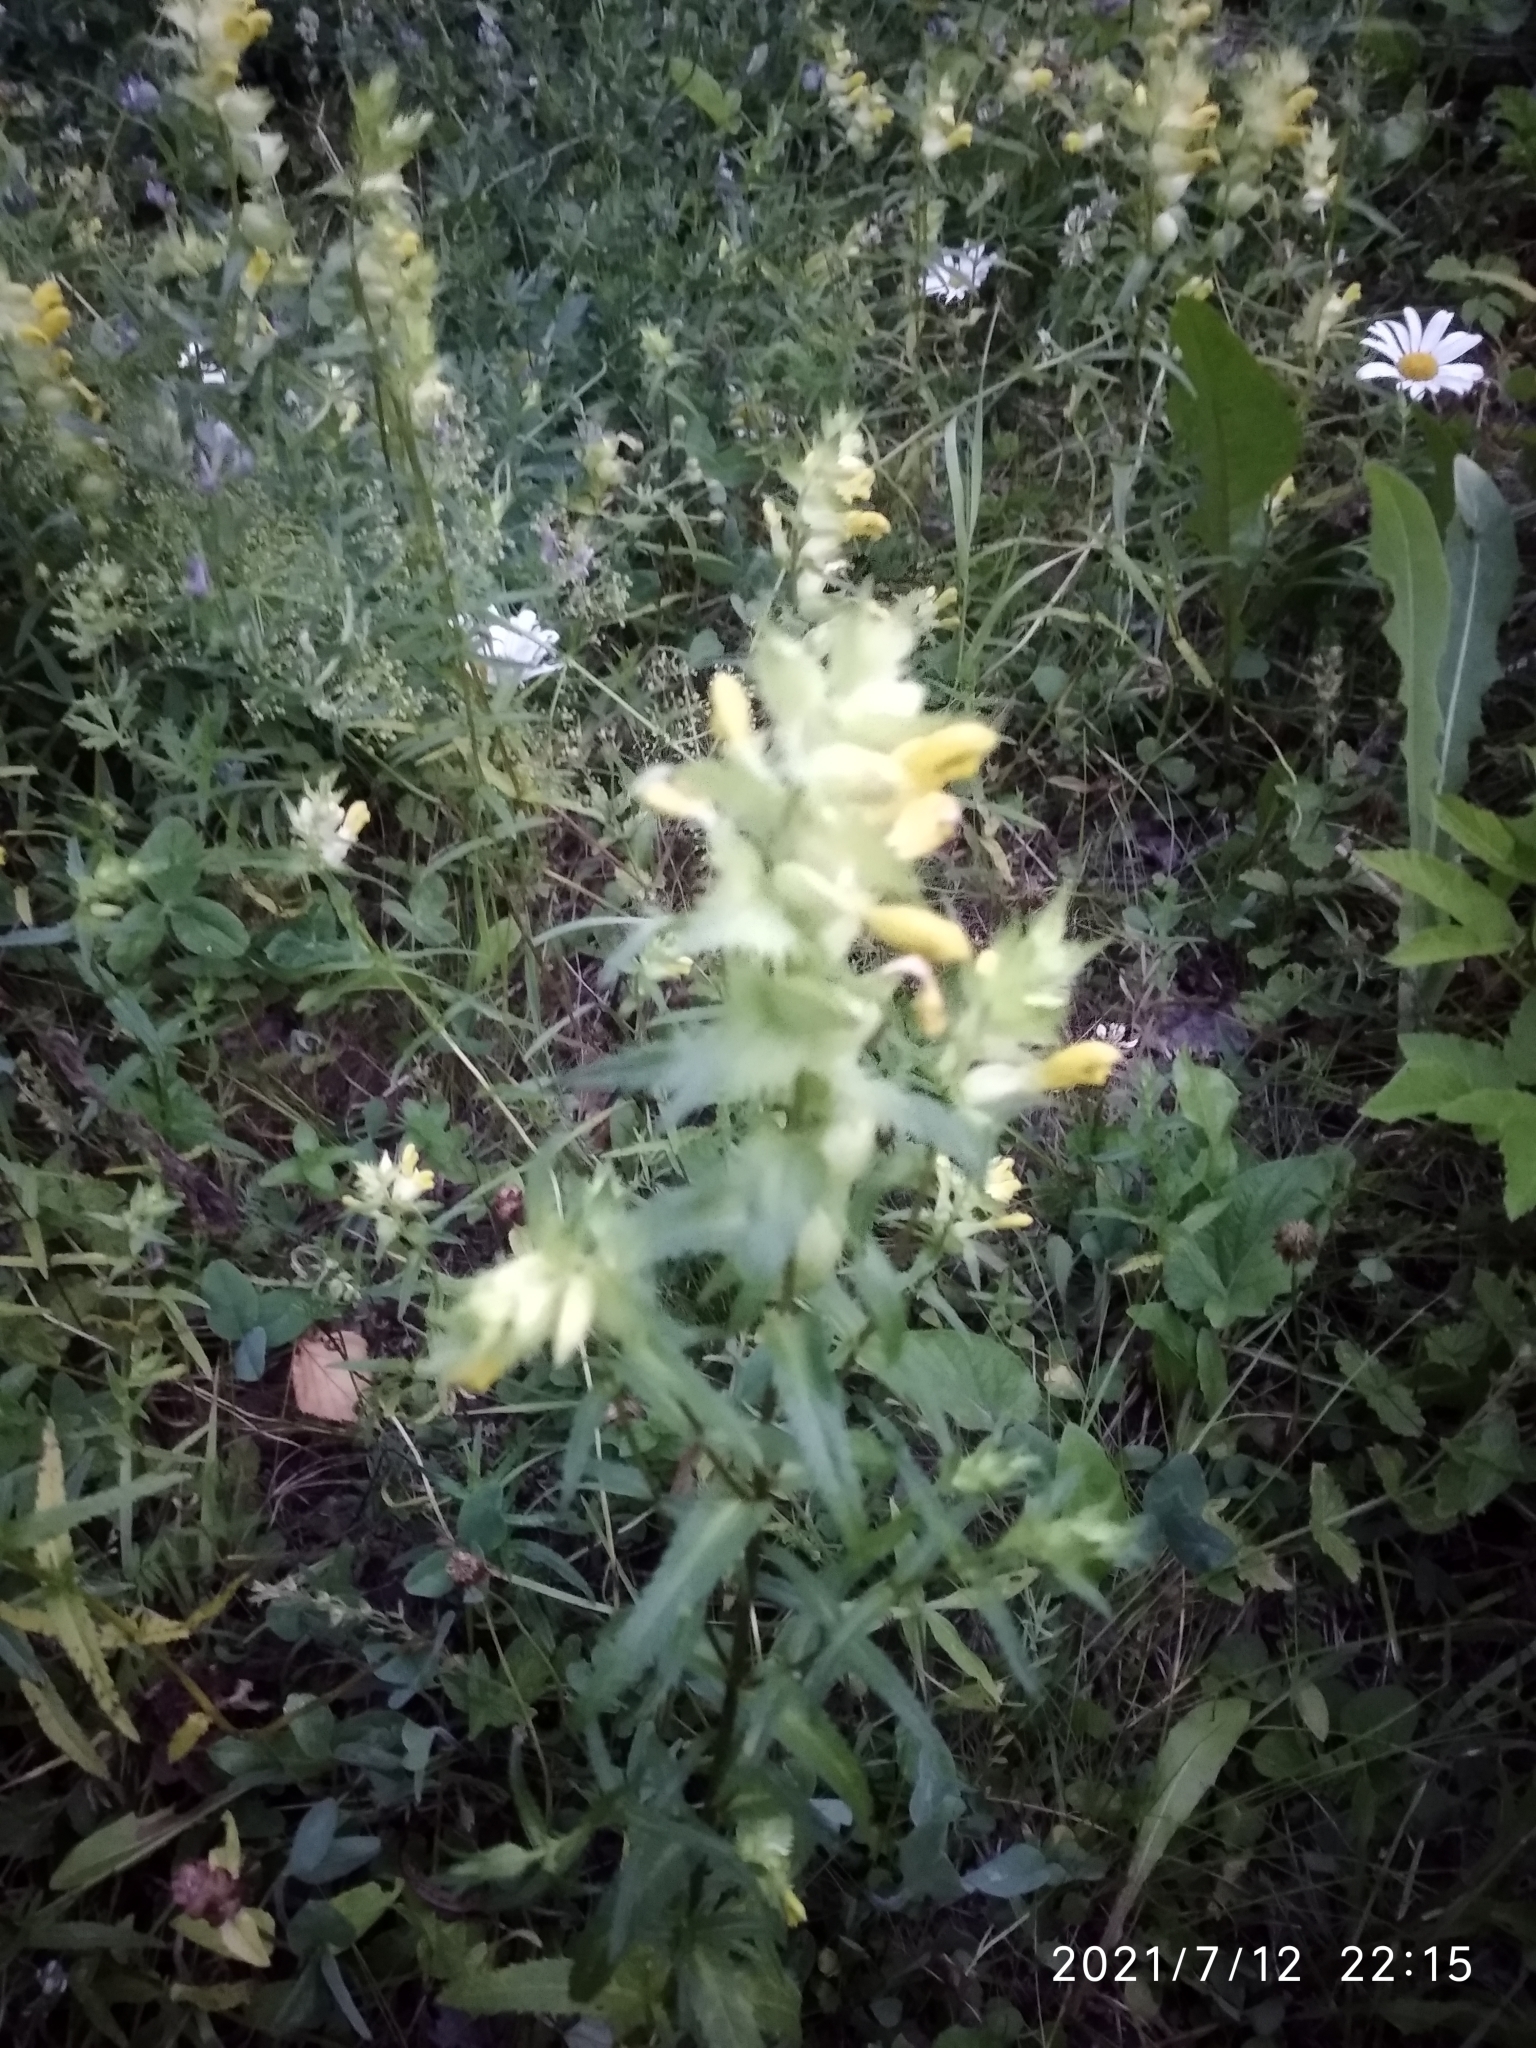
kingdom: Plantae
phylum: Tracheophyta
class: Magnoliopsida
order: Lamiales
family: Orobanchaceae
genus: Rhinanthus
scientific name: Rhinanthus serotinus
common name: Late-flowering yellow rattle
